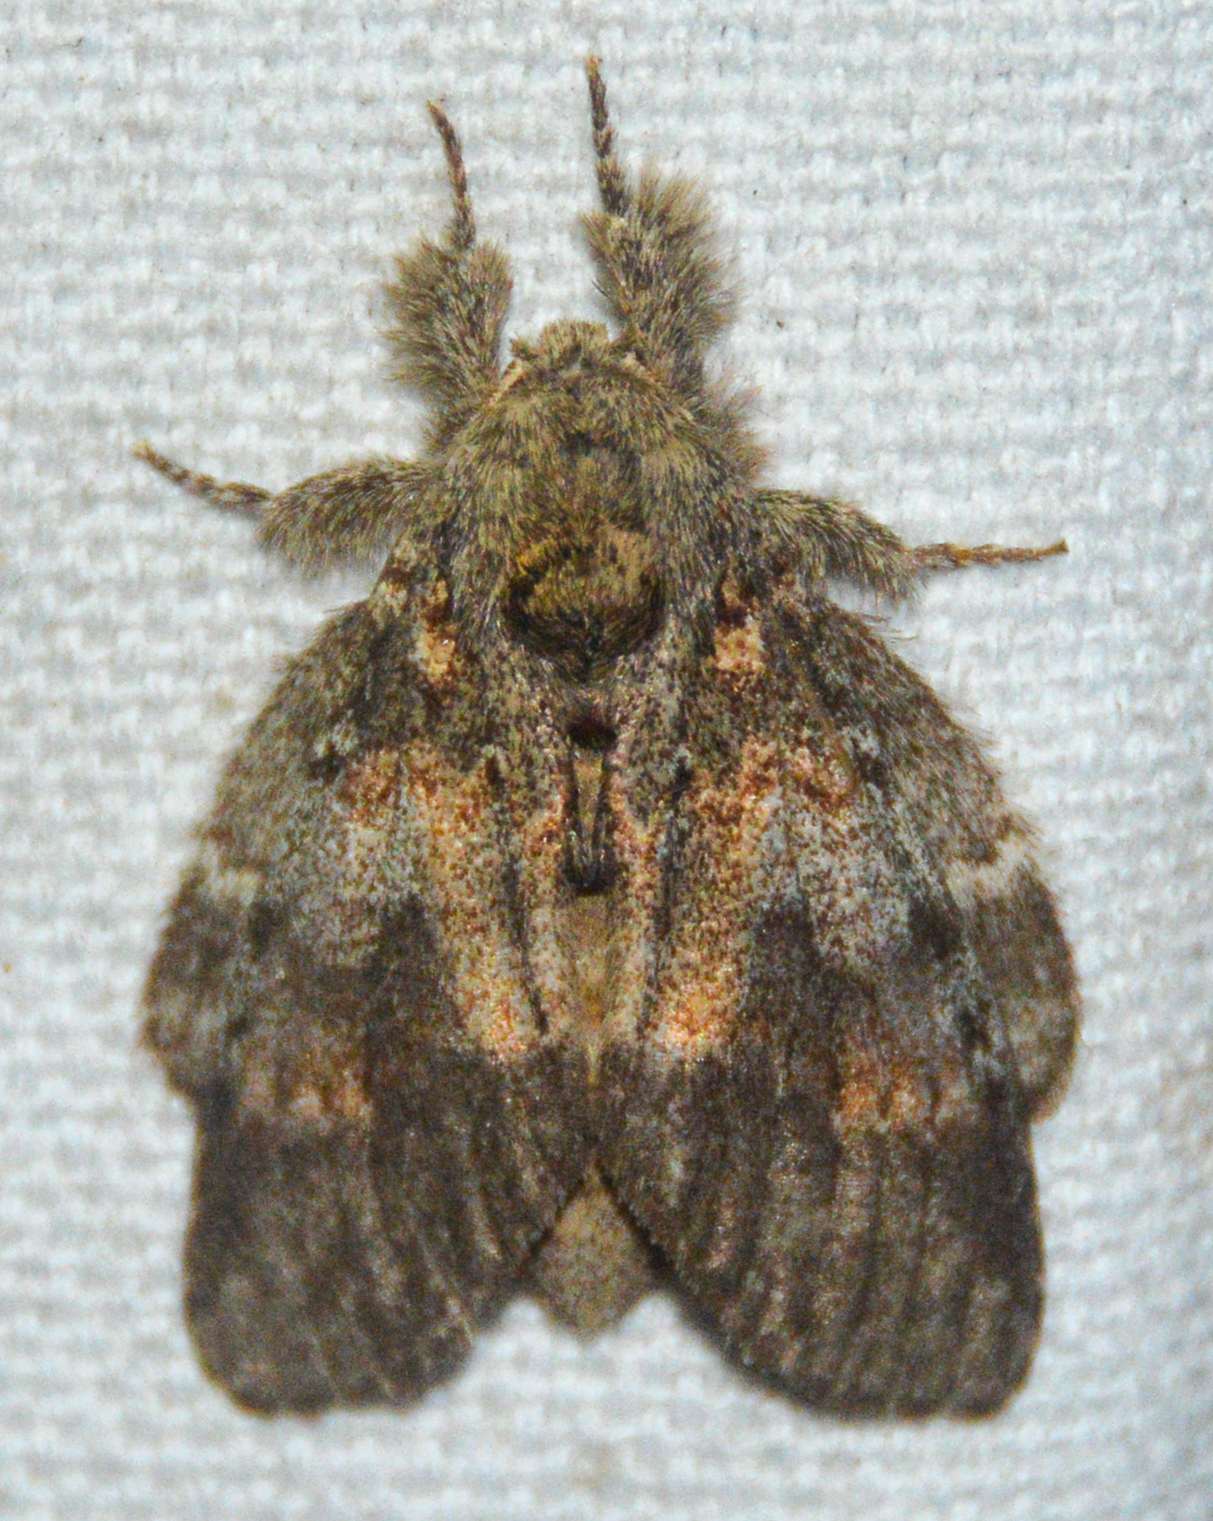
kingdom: Animalia
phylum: Arthropoda
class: Insecta
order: Lepidoptera
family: Notodontidae
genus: Peridea
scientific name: Peridea angulosa
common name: Angulose prominent
